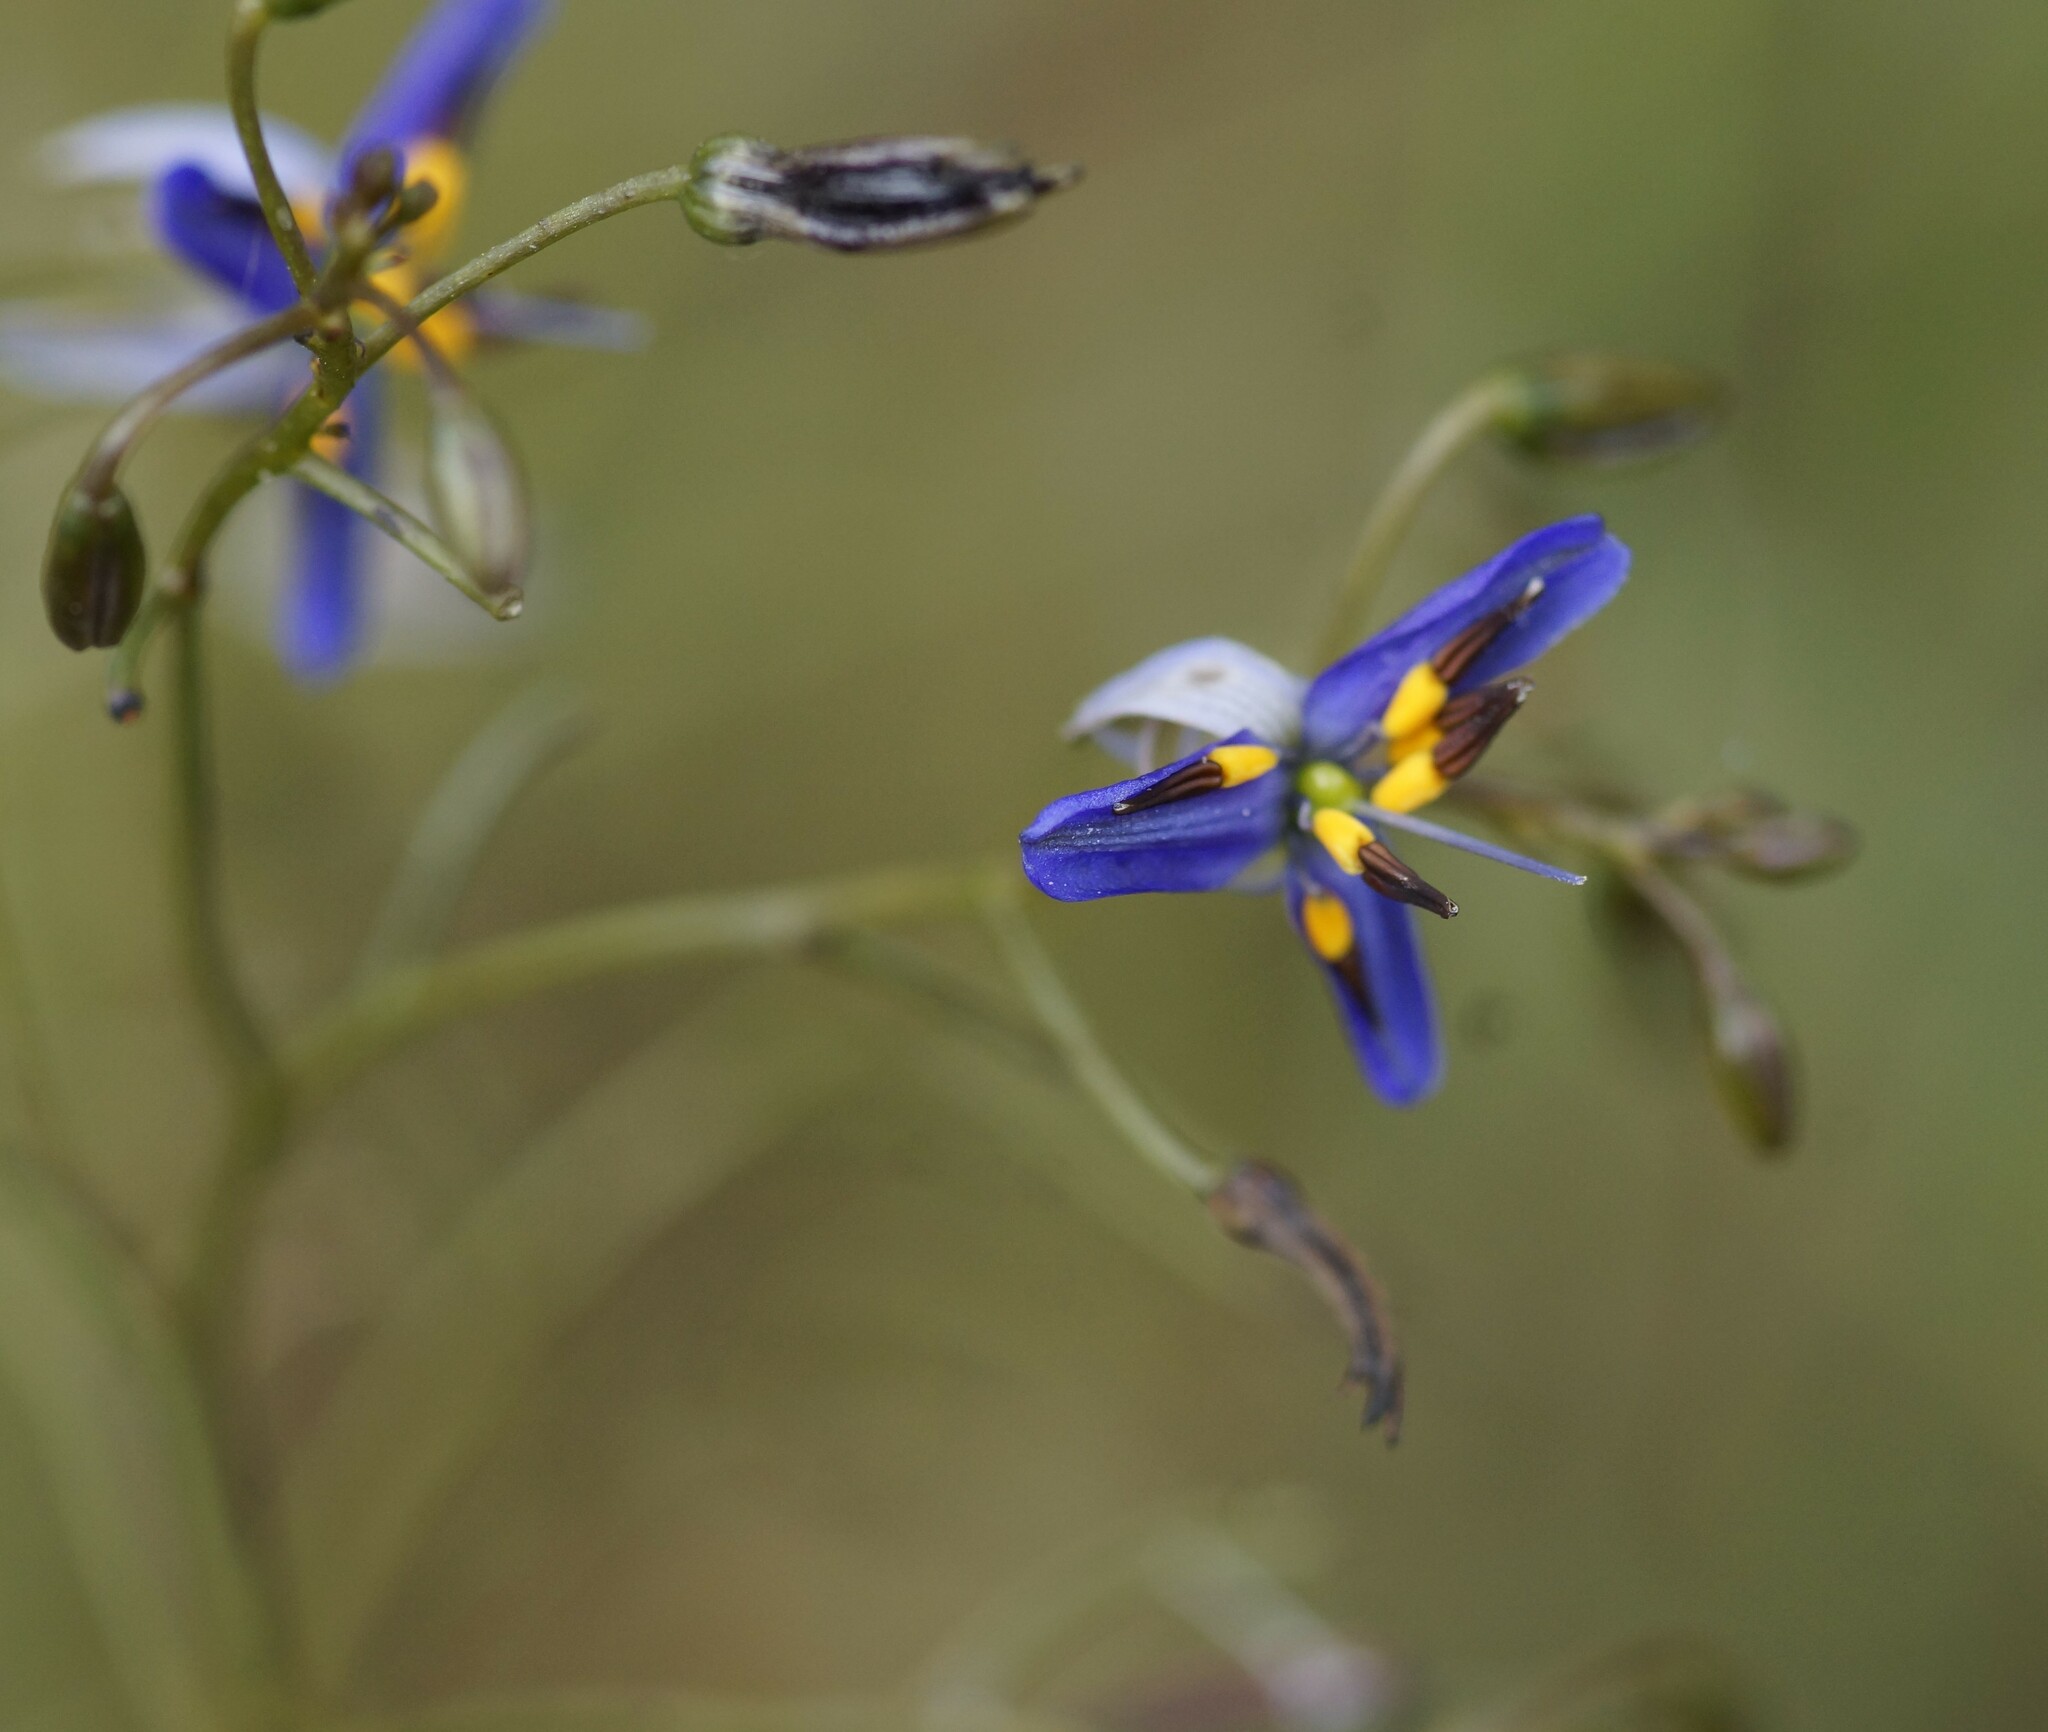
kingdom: Plantae
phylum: Tracheophyta
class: Liliopsida
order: Asparagales
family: Asphodelaceae
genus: Dianella
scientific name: Dianella revoluta
